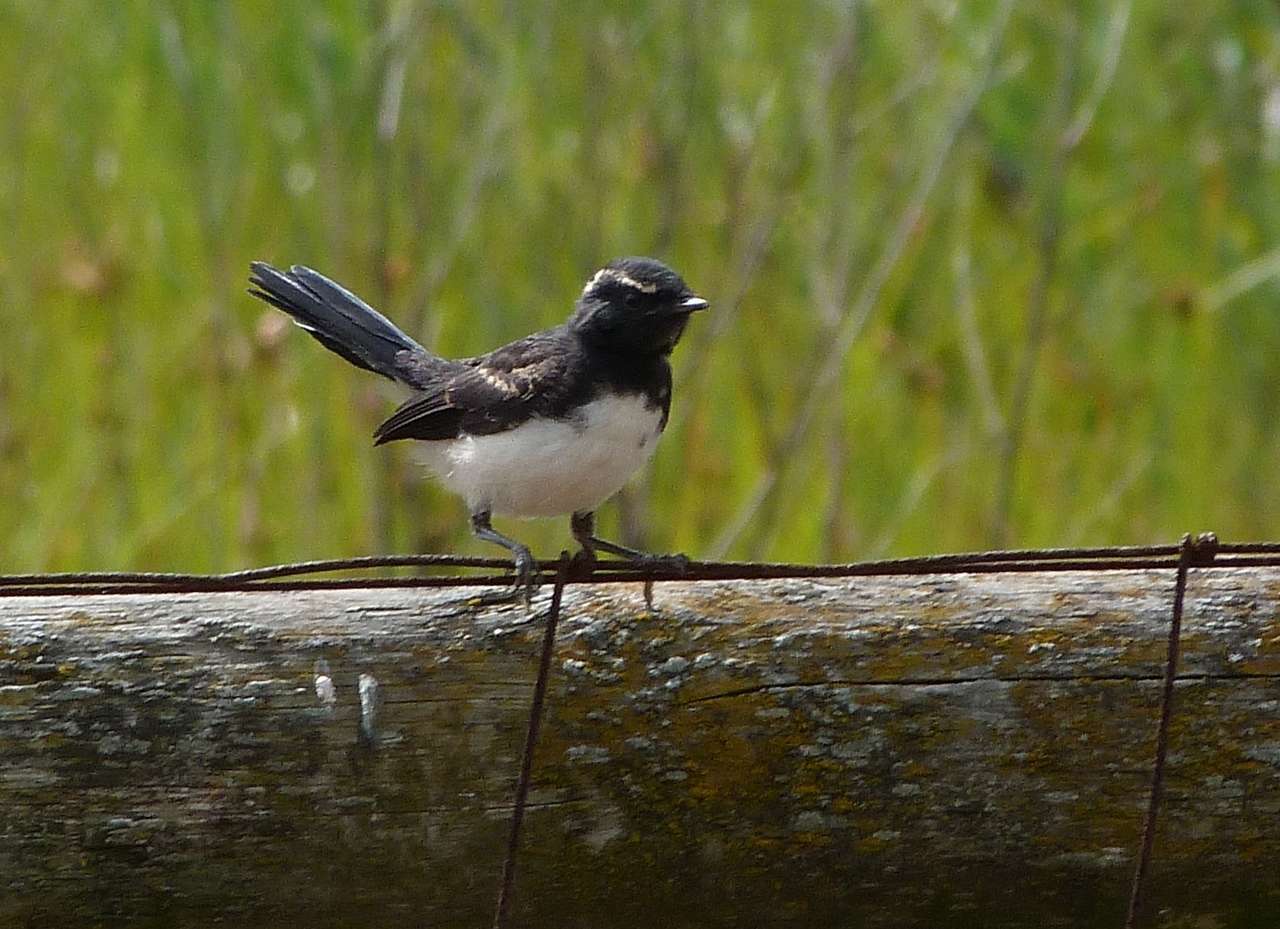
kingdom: Animalia
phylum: Chordata
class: Aves
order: Passeriformes
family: Rhipiduridae
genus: Rhipidura
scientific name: Rhipidura leucophrys
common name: Willie wagtail
